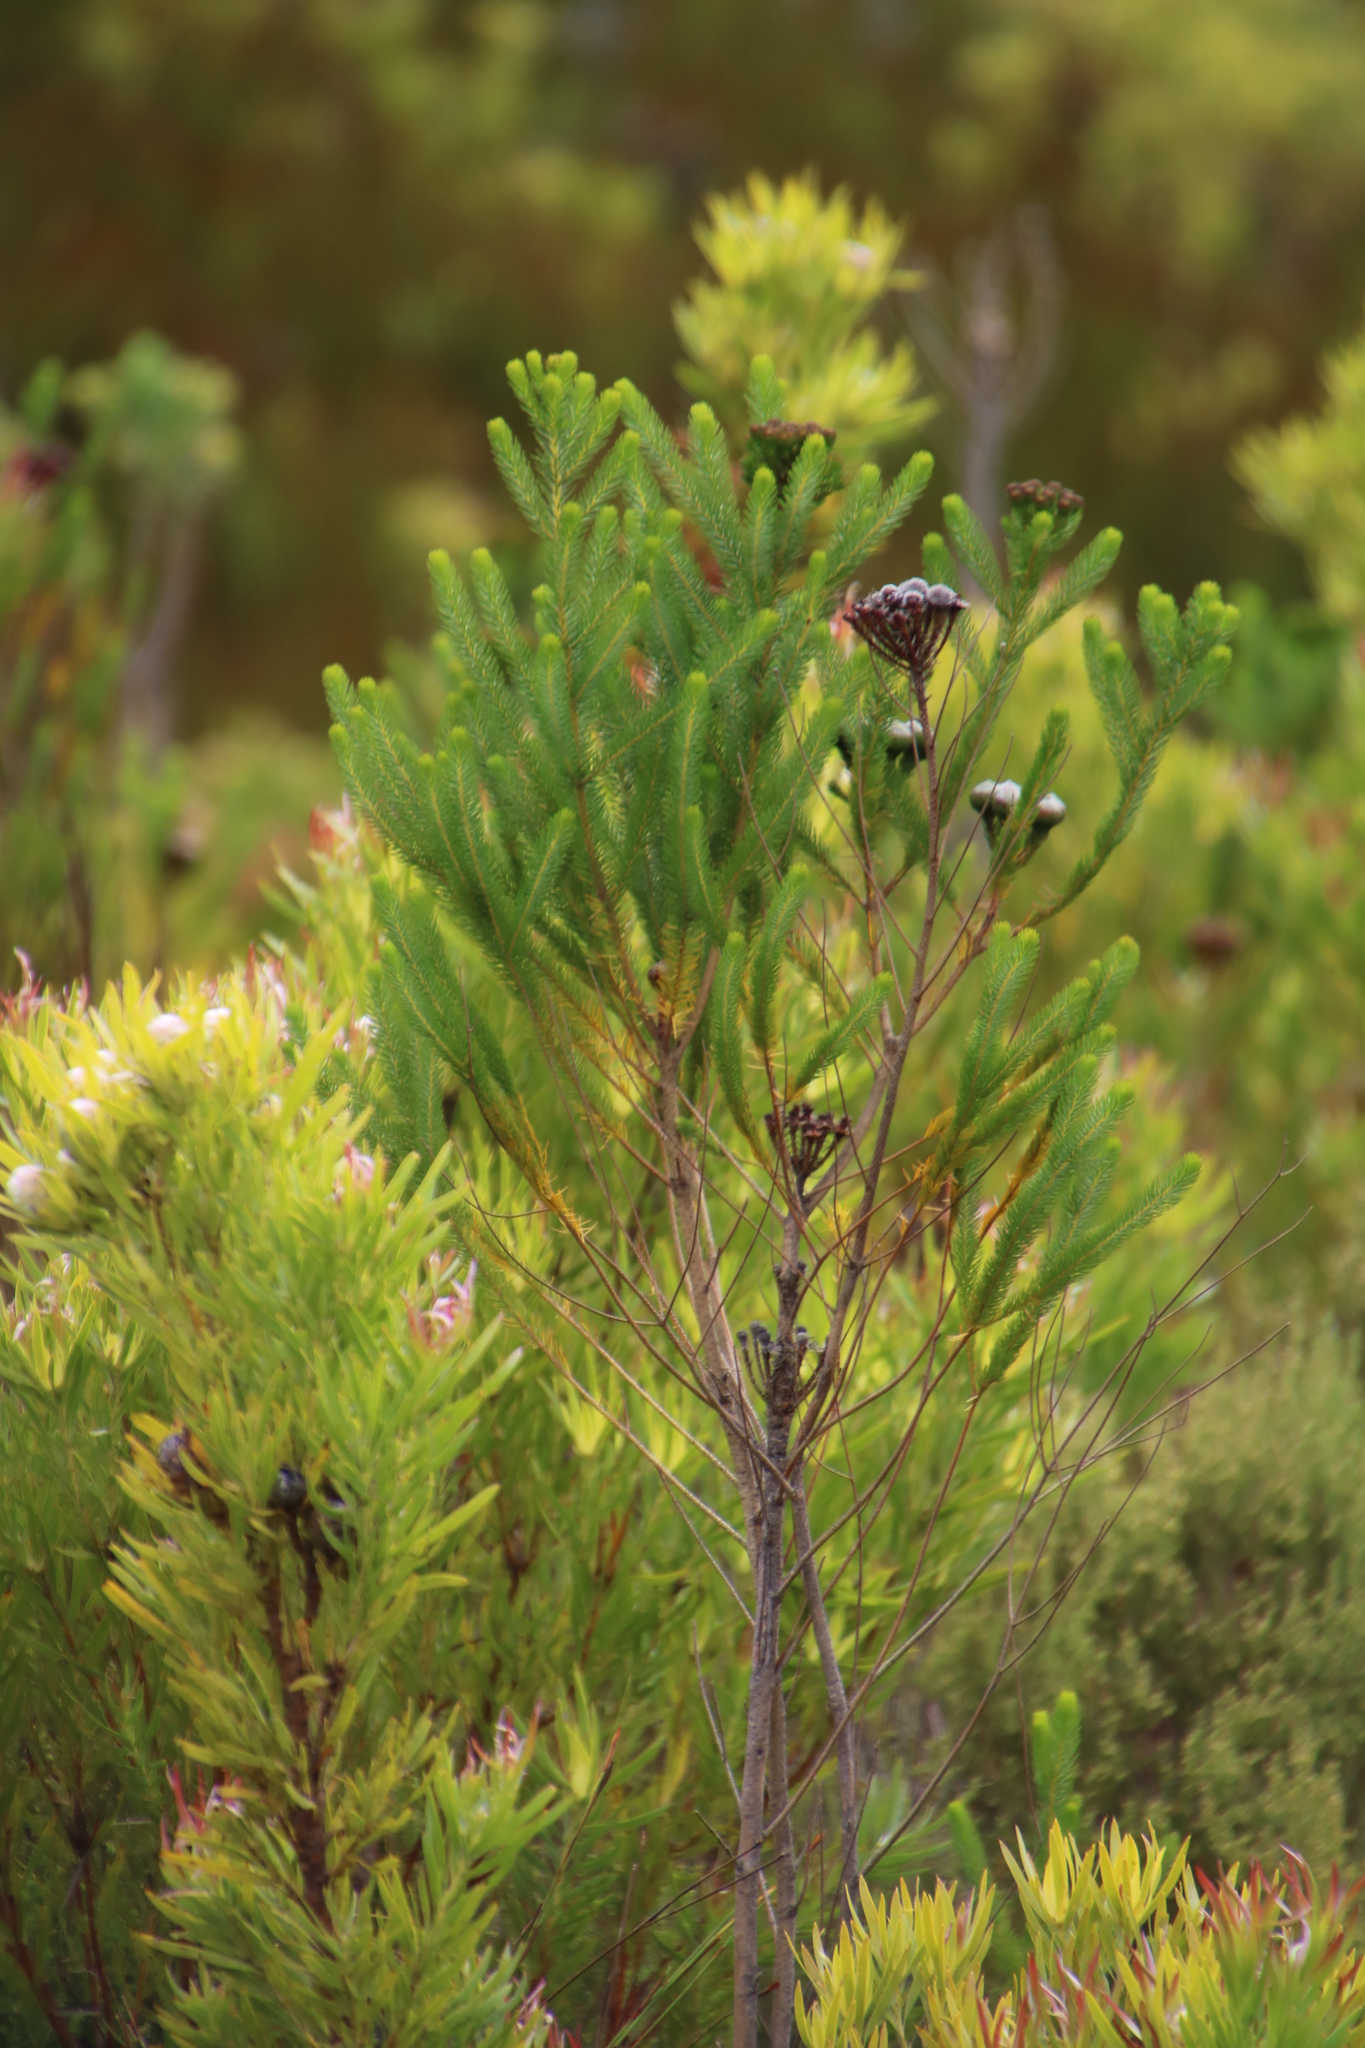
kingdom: Plantae
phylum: Tracheophyta
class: Magnoliopsida
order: Bruniales
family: Bruniaceae
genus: Berzelia
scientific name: Berzelia albiflora
